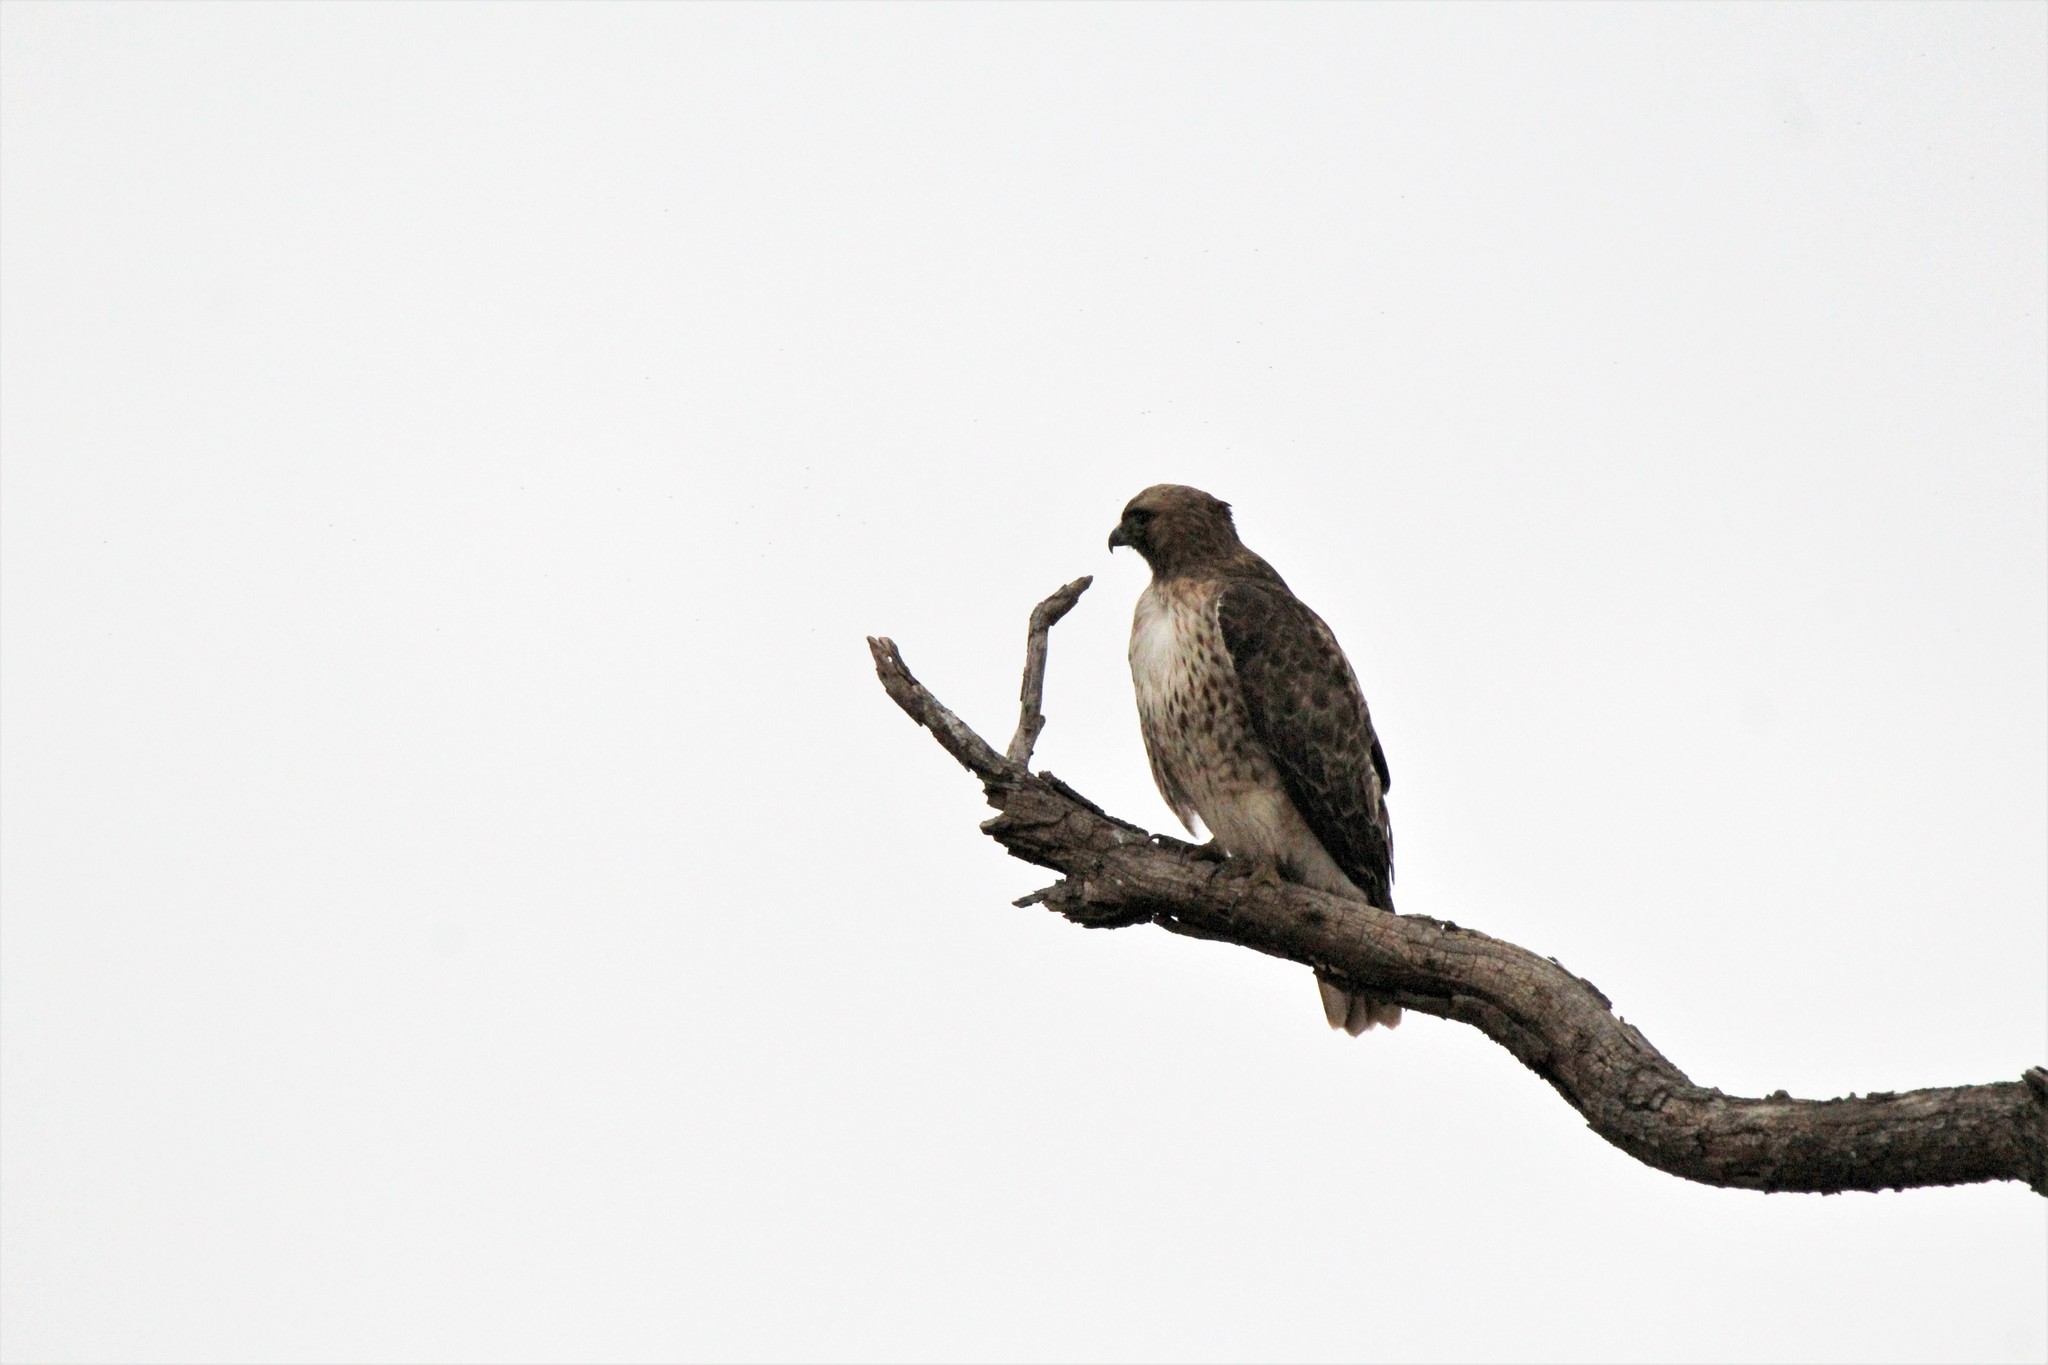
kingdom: Animalia
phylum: Chordata
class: Aves
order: Accipitriformes
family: Accipitridae
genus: Buteo
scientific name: Buteo jamaicensis
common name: Red-tailed hawk
